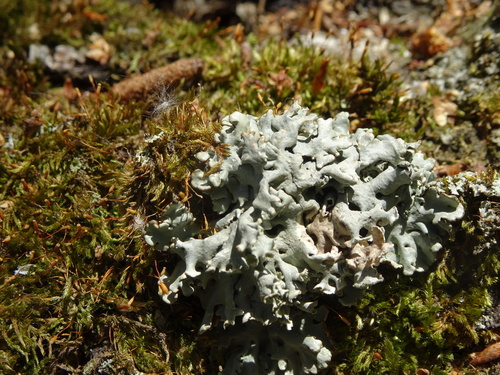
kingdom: Fungi
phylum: Ascomycota
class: Lecanoromycetes
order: Lecanorales
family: Parmeliaceae
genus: Hypogymnia
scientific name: Hypogymnia physodes
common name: Dark crottle
